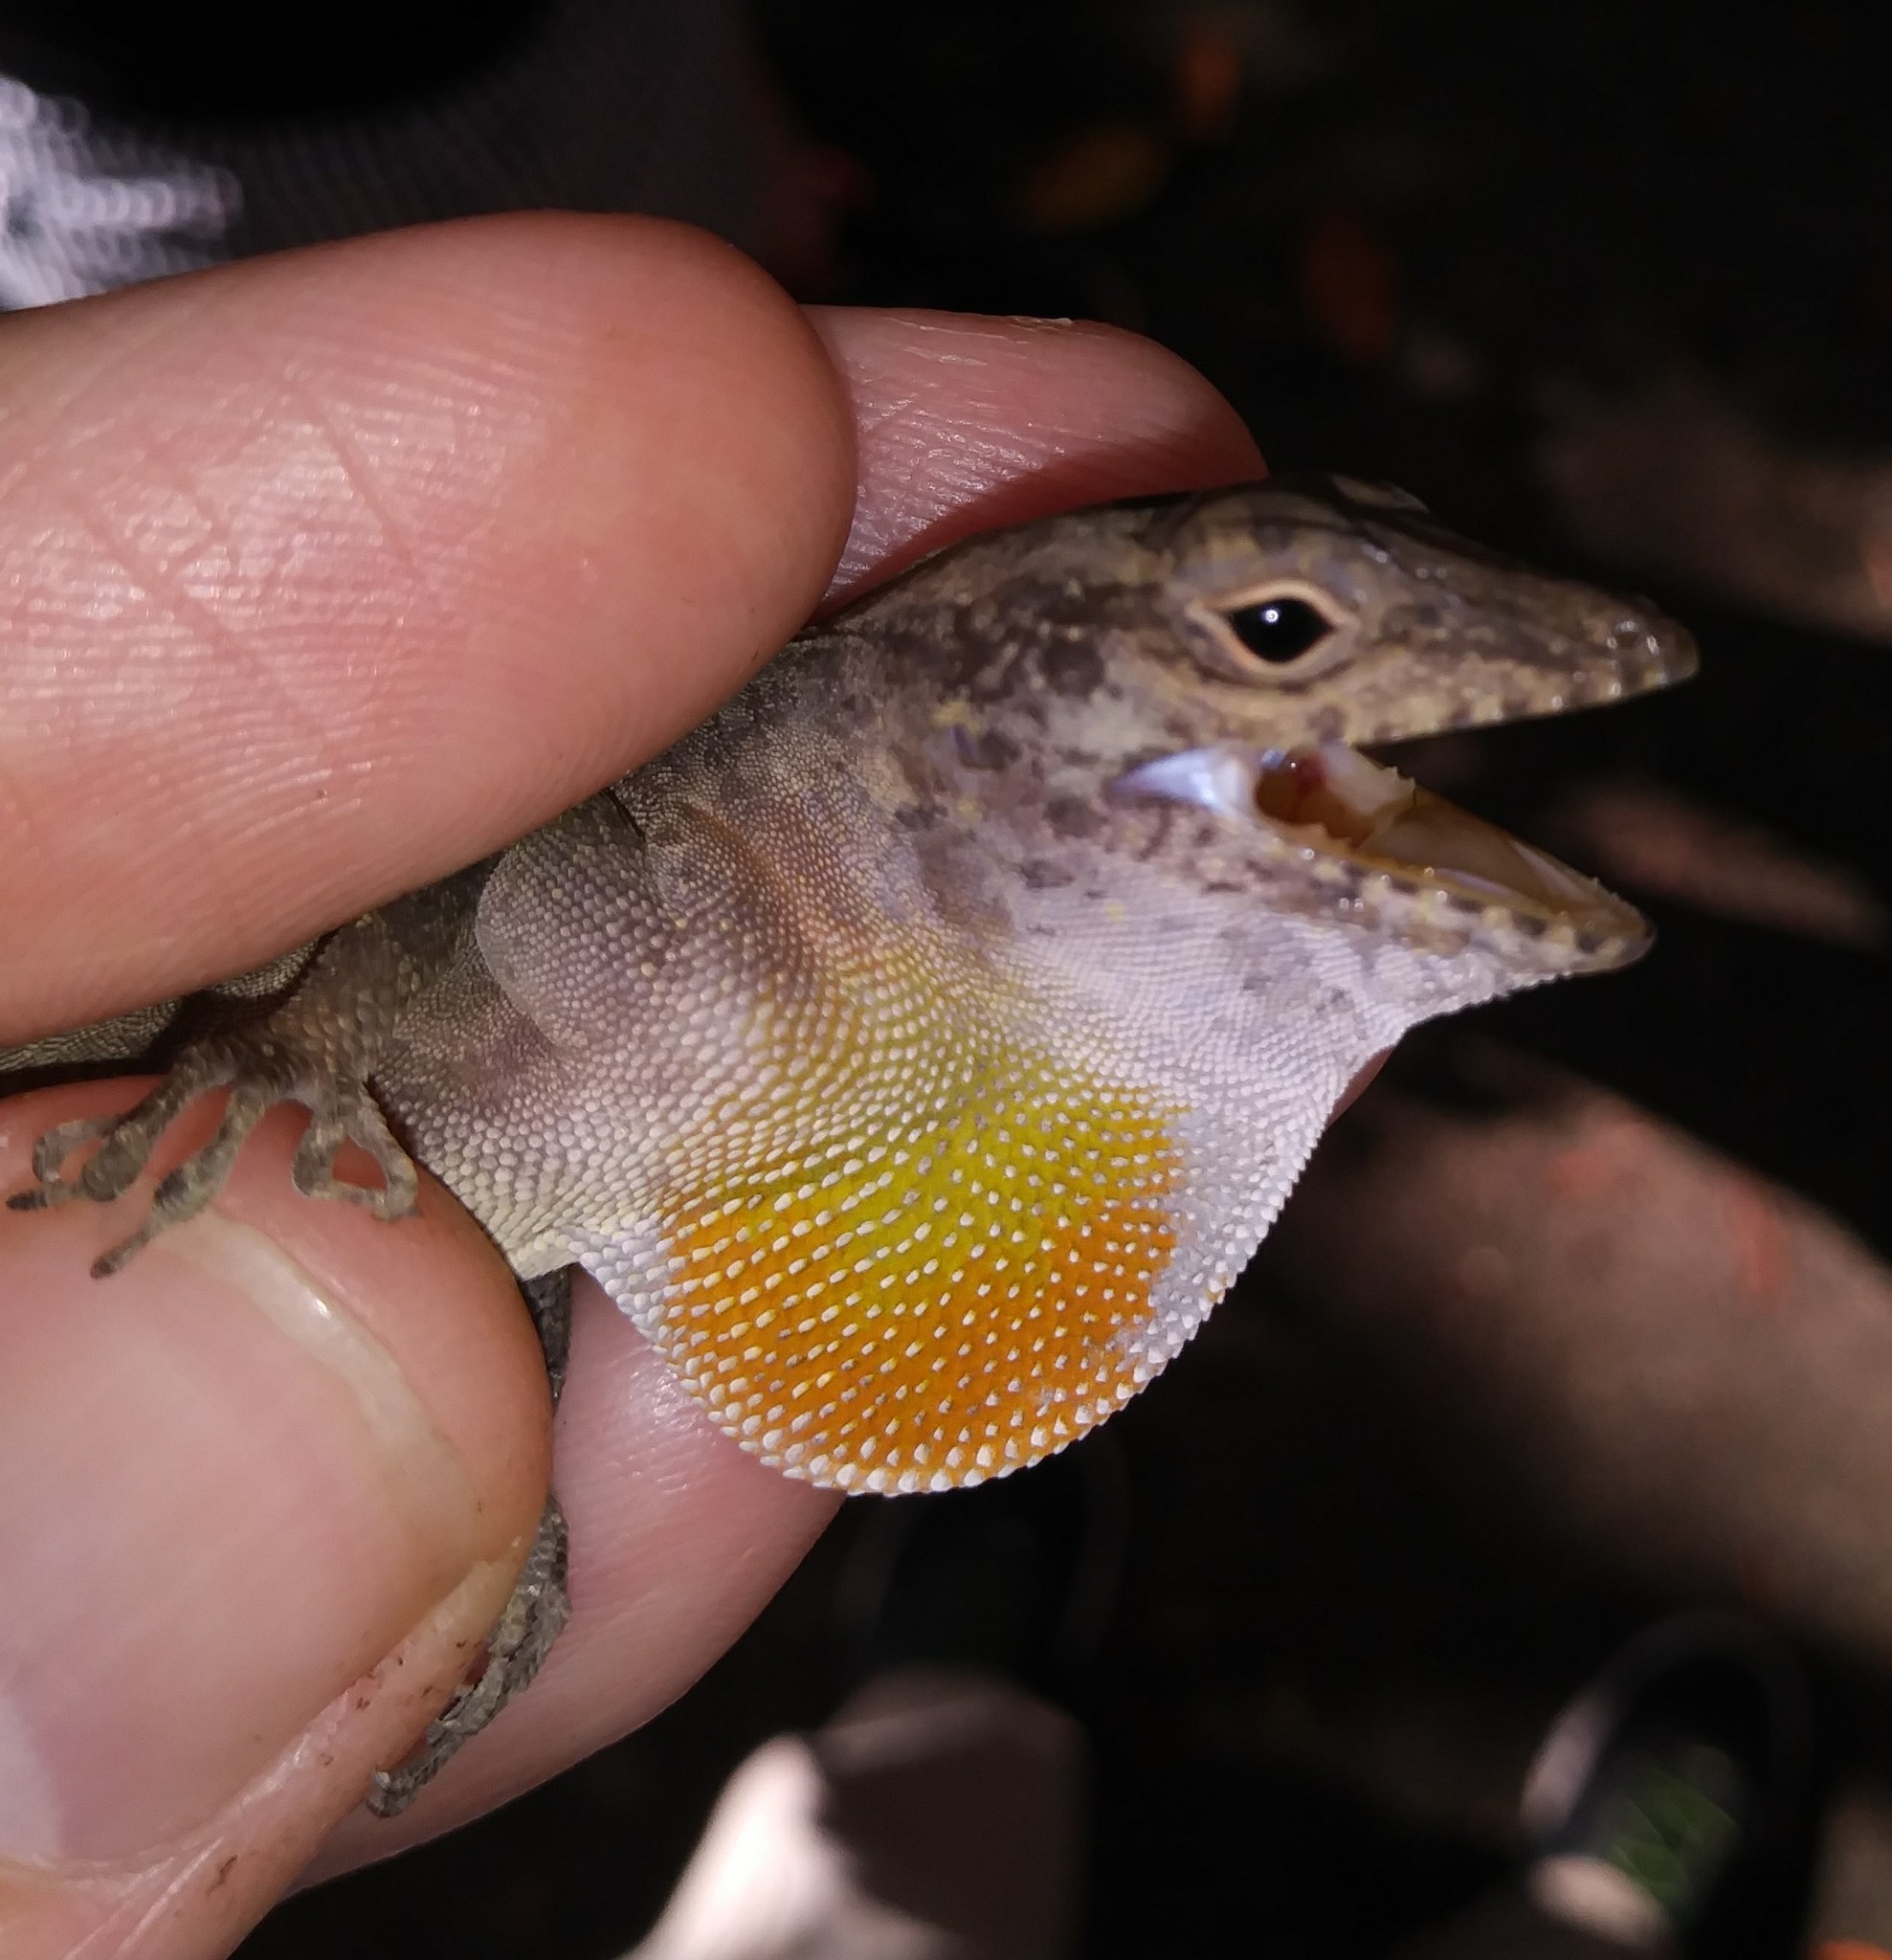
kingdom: Animalia
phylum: Chordata
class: Squamata
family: Dactyloidae
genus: Anolis
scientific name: Anolis cristatellus
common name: Crested anole
